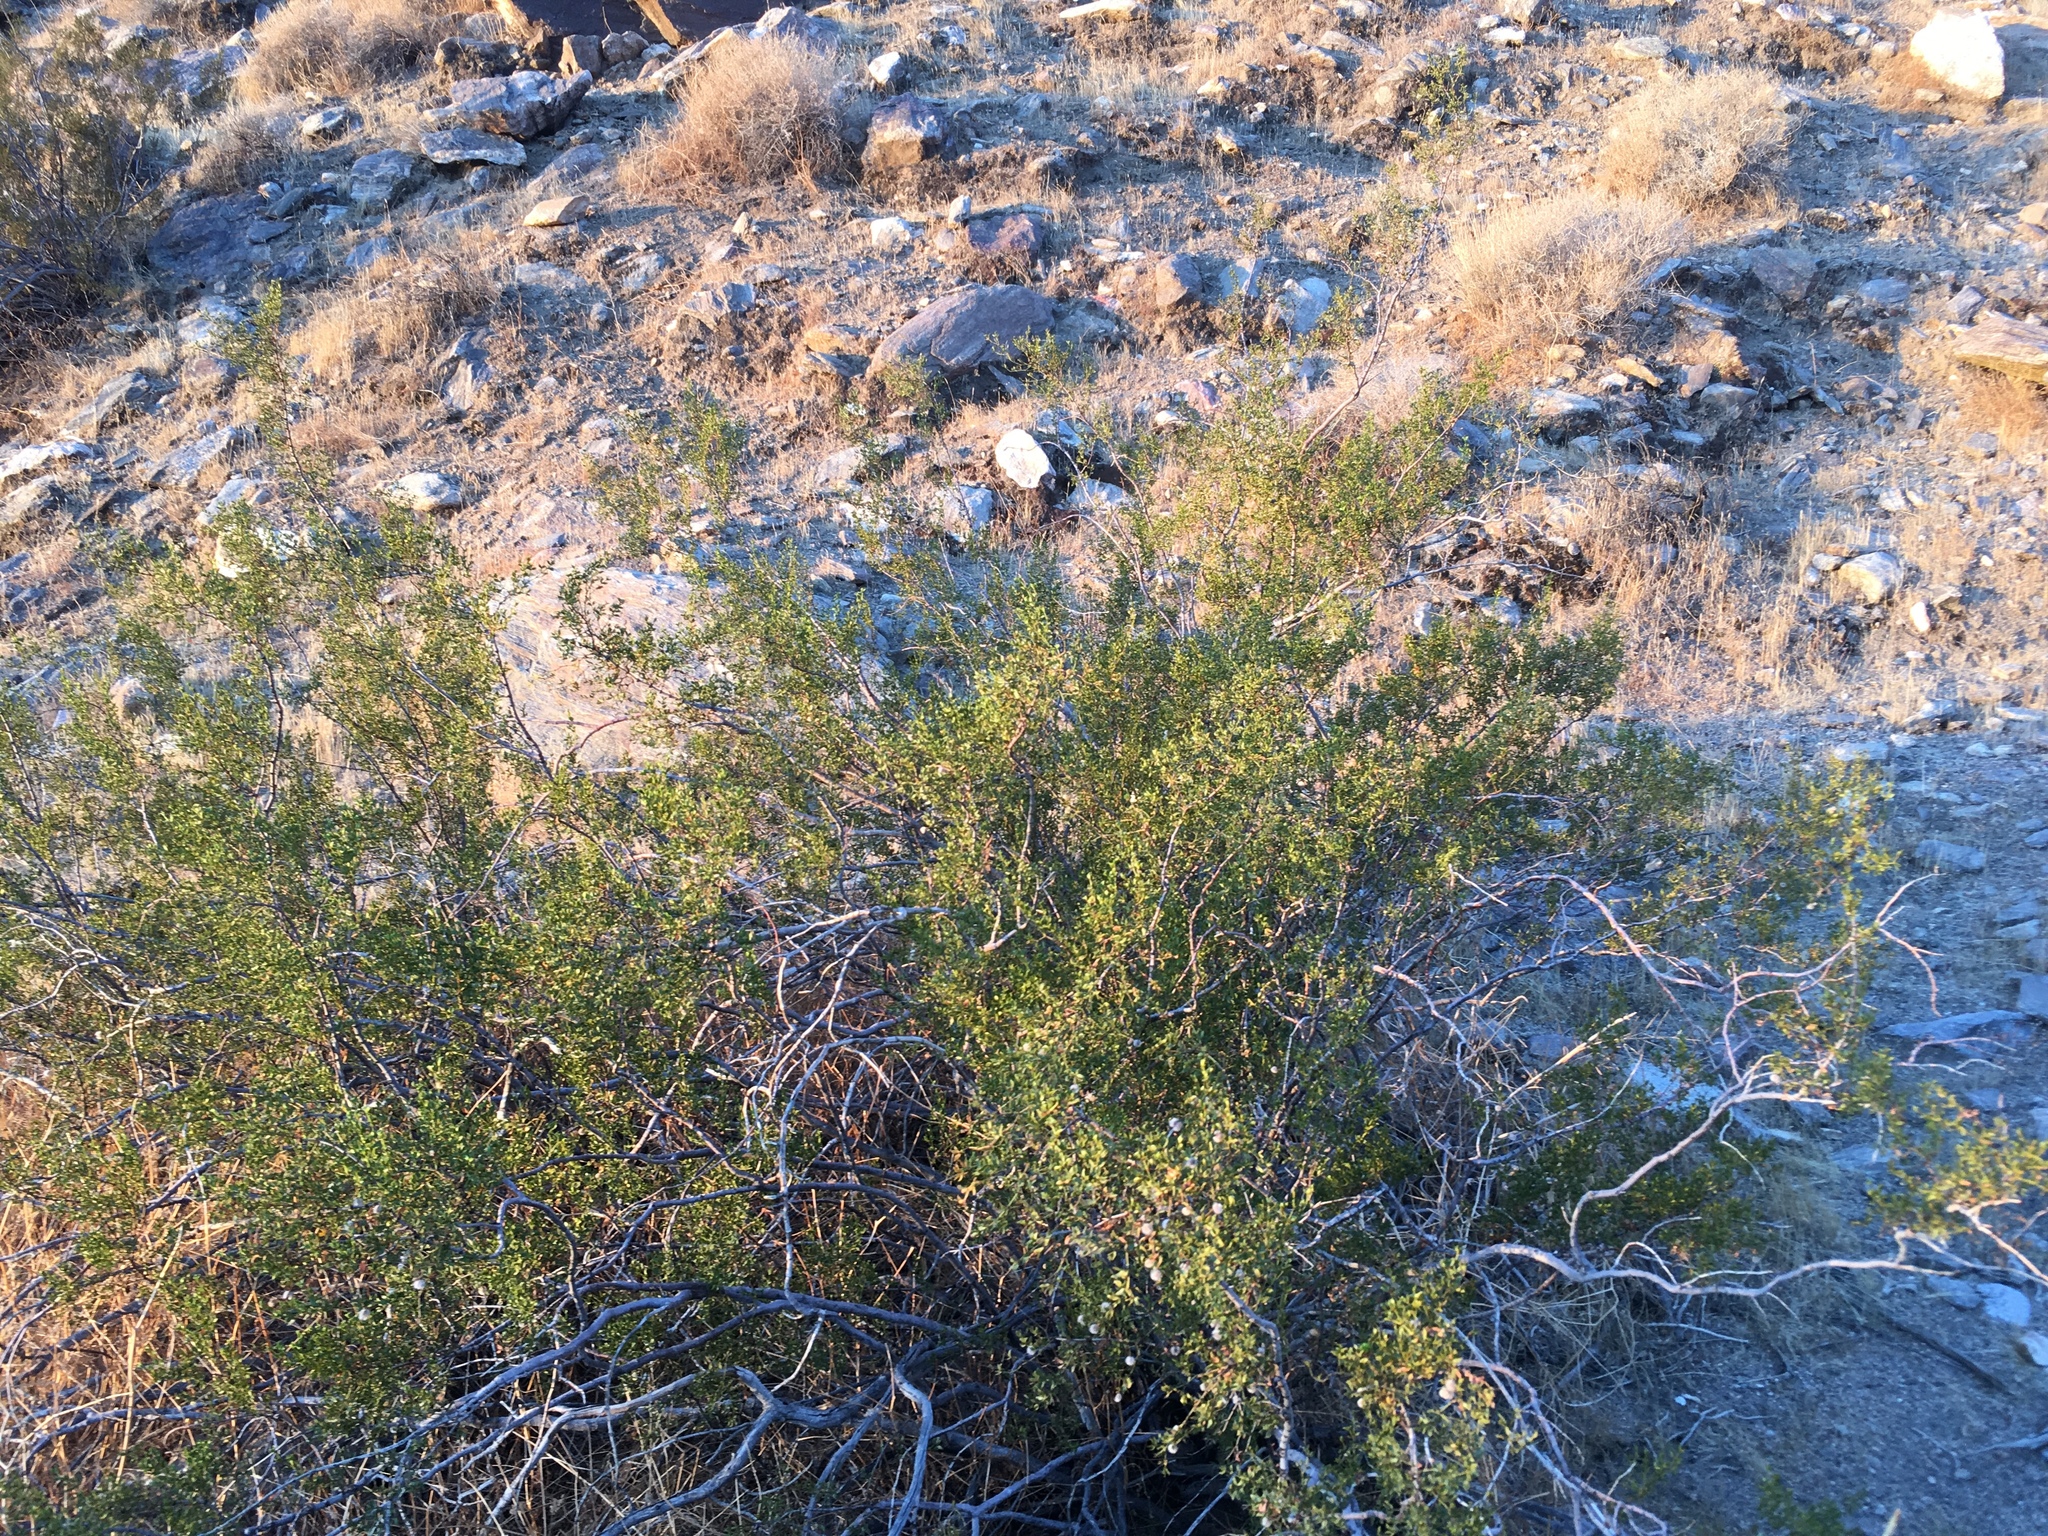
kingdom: Plantae
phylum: Tracheophyta
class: Magnoliopsida
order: Zygophyllales
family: Zygophyllaceae
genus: Larrea
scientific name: Larrea tridentata
